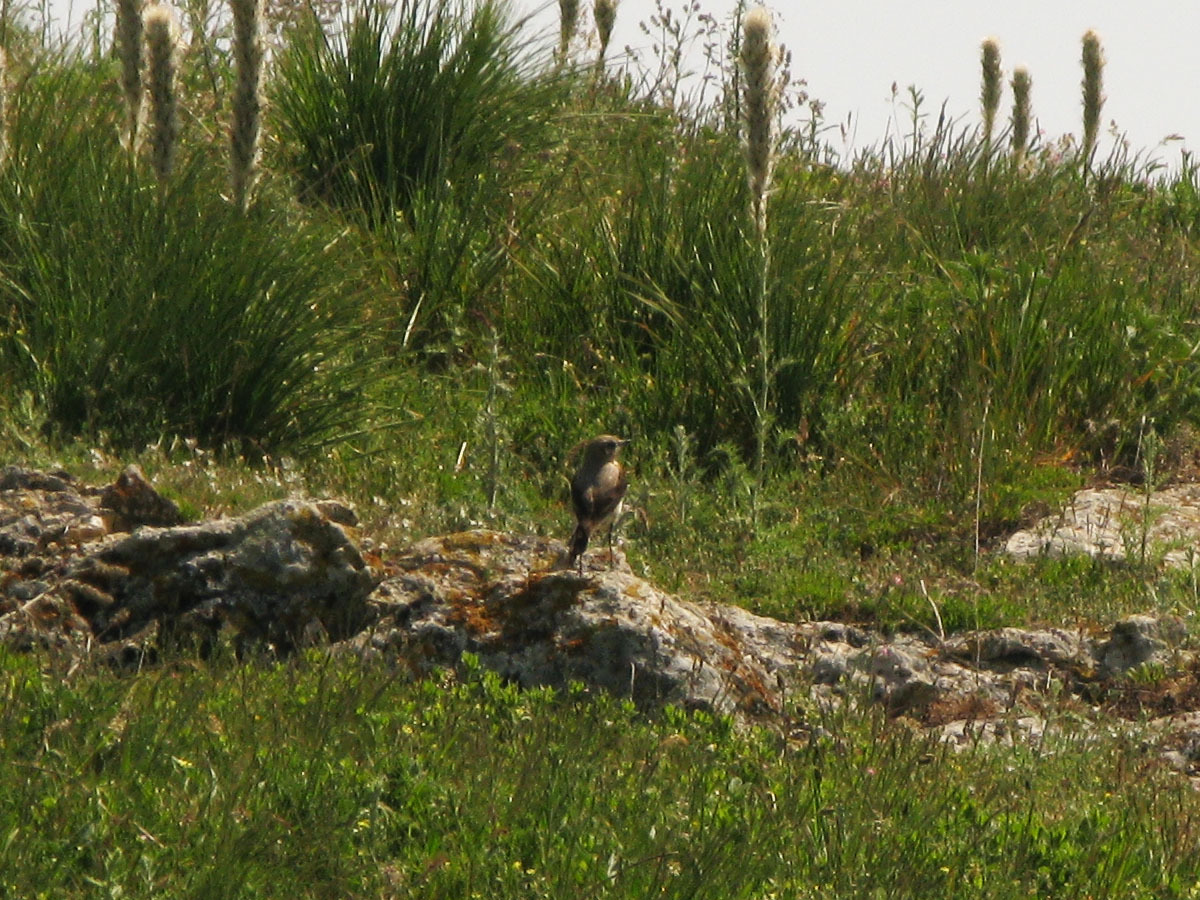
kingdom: Animalia
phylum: Chordata
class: Aves
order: Passeriformes
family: Muscicapidae
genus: Oenanthe
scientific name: Oenanthe oenanthe
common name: Northern wheatear
